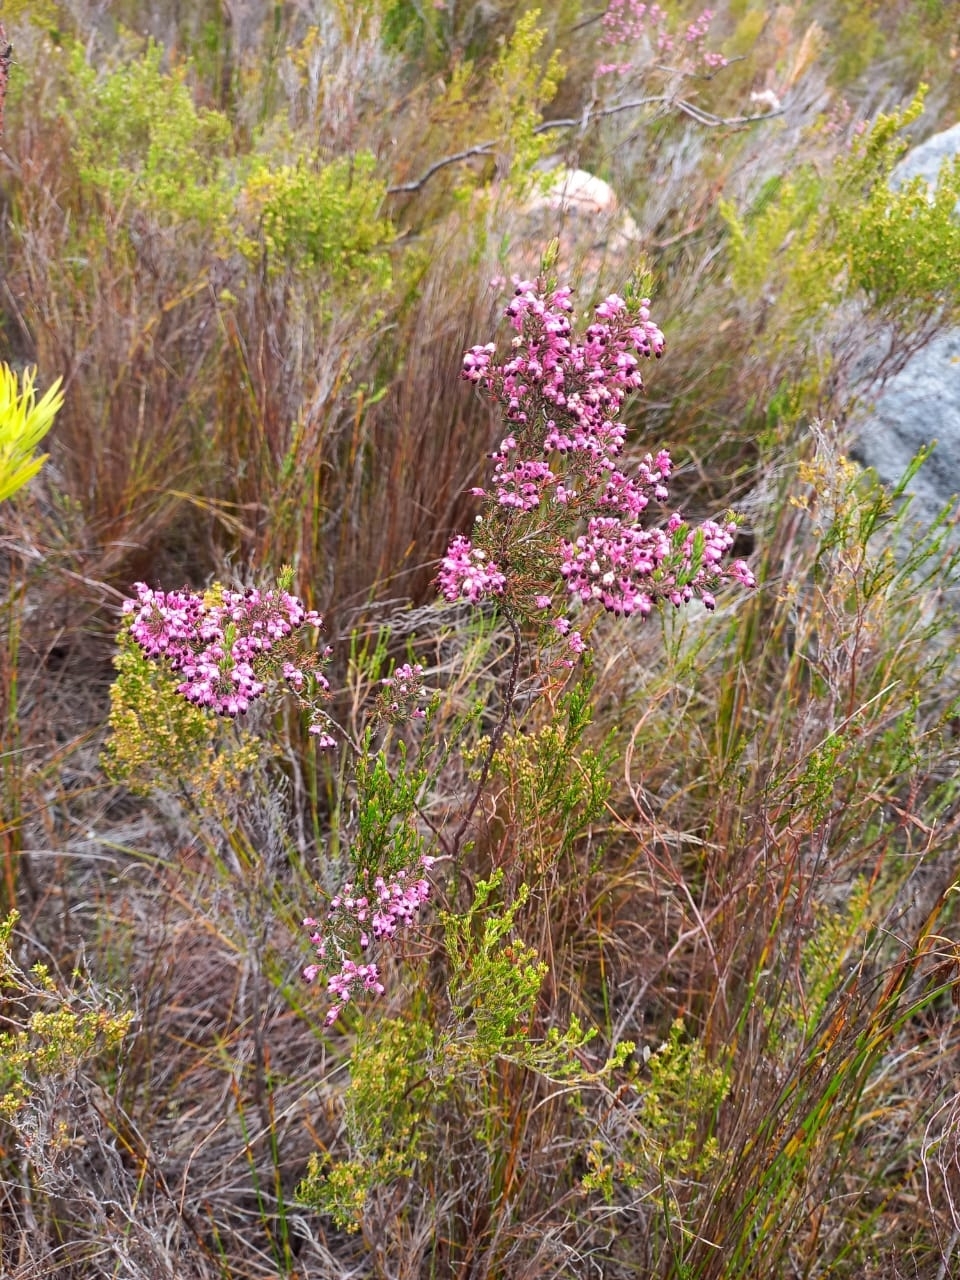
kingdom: Plantae
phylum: Tracheophyta
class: Magnoliopsida
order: Ericales
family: Ericaceae
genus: Erica
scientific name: Erica placentiflora
